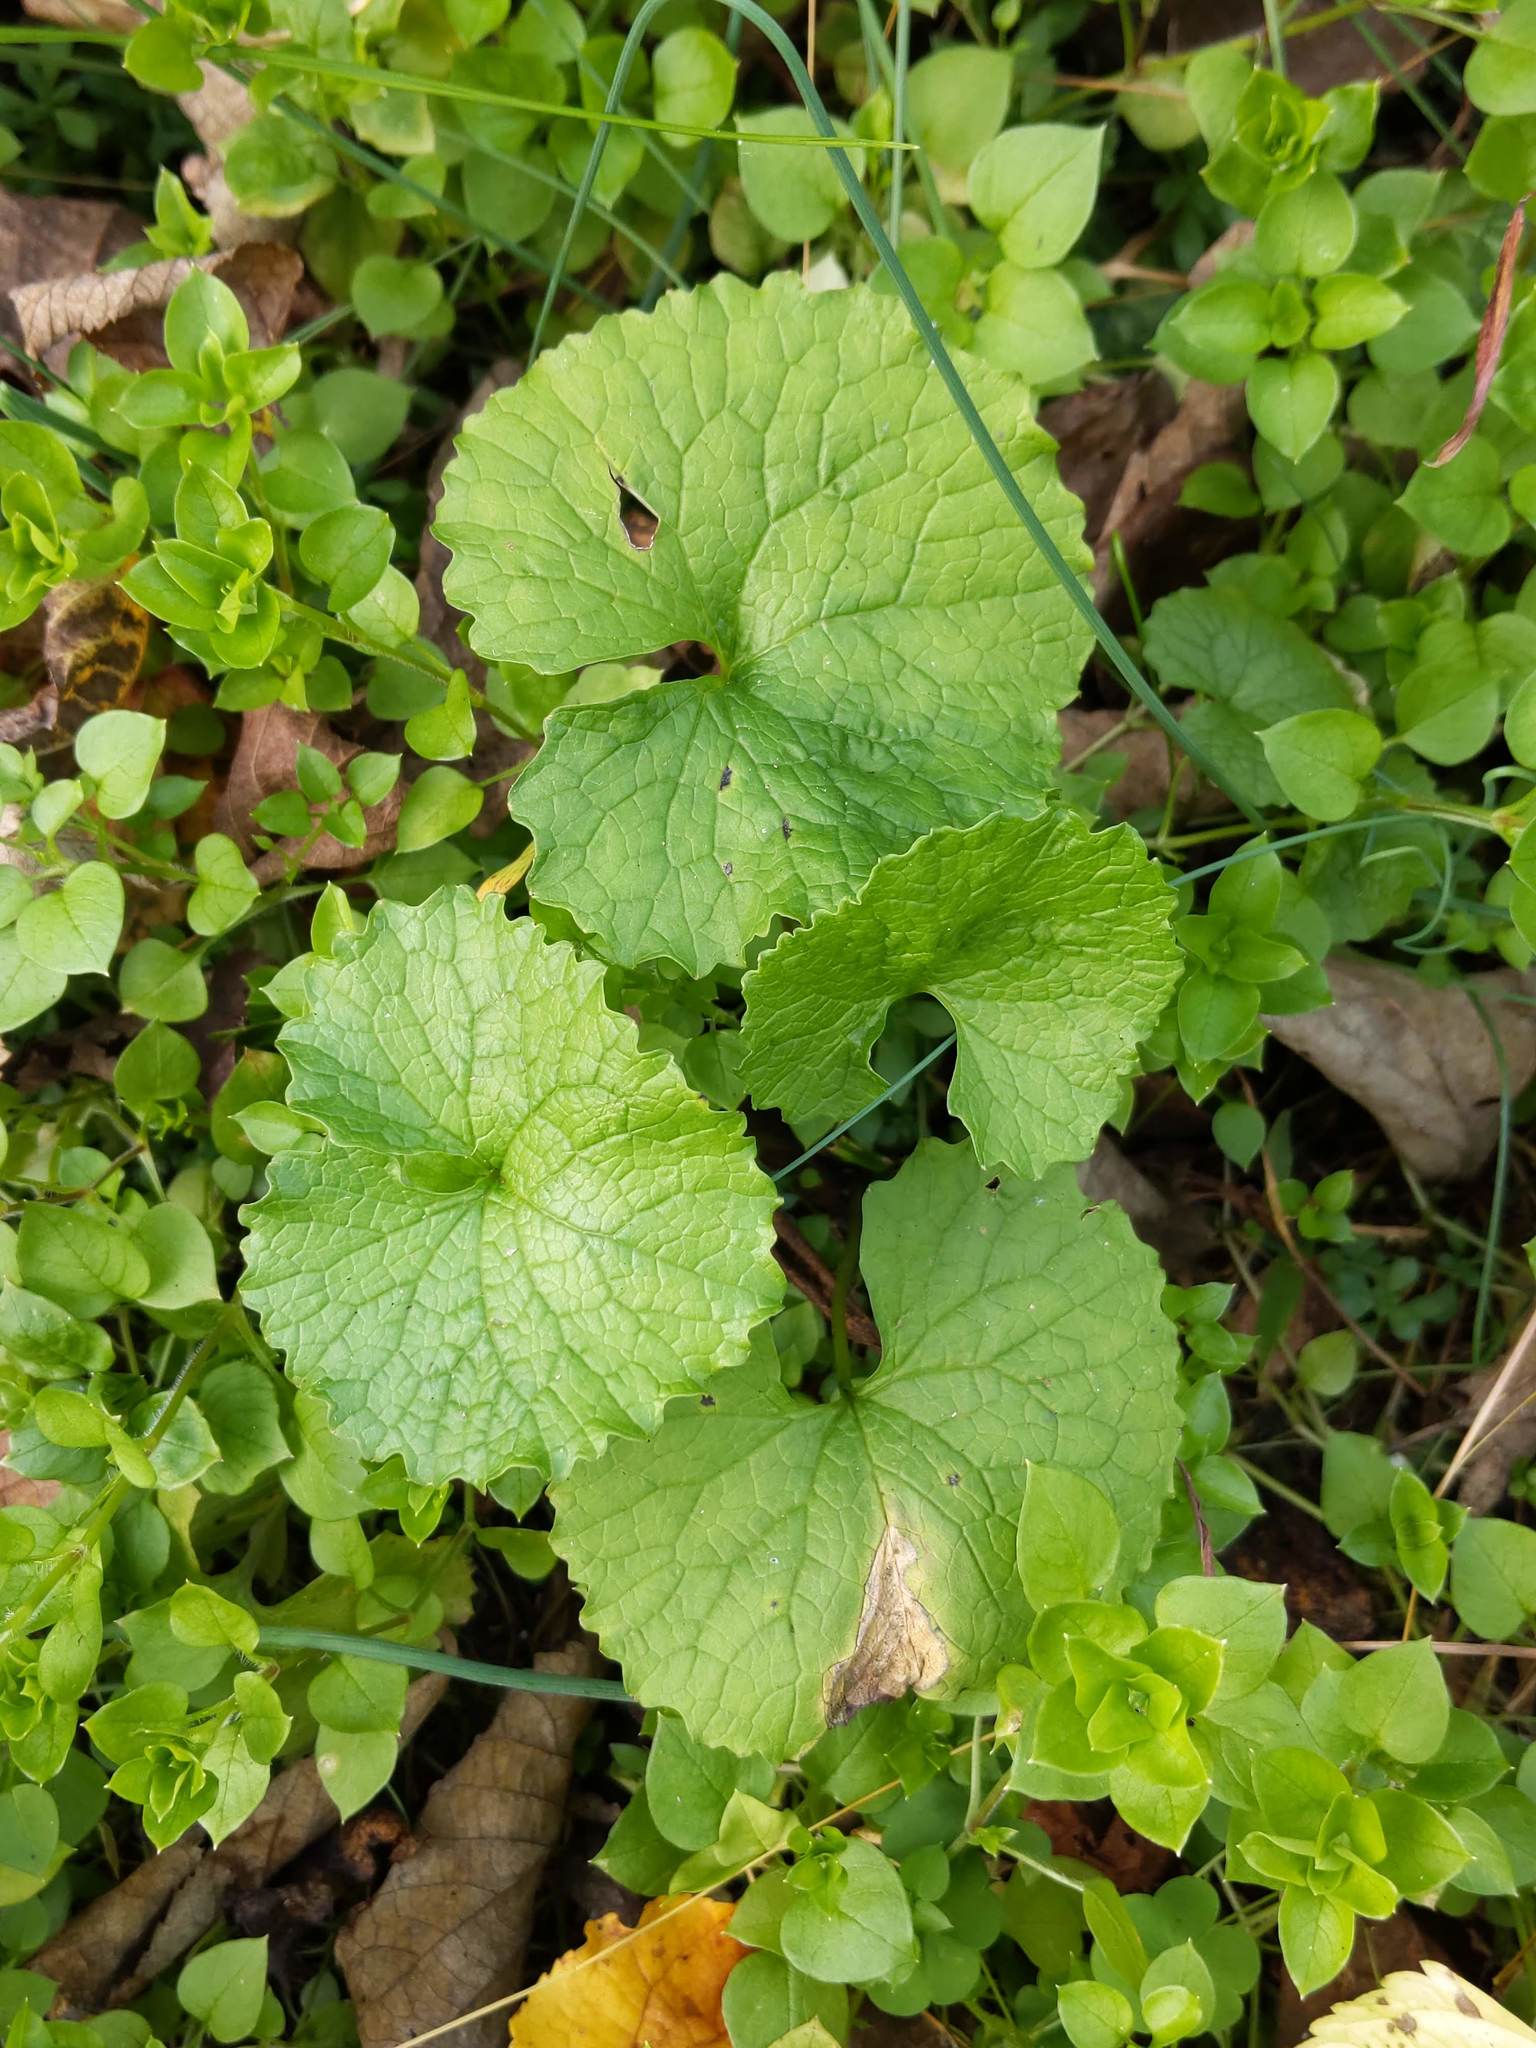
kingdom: Plantae
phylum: Tracheophyta
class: Magnoliopsida
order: Brassicales
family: Brassicaceae
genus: Alliaria
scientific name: Alliaria petiolata
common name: Garlic mustard
